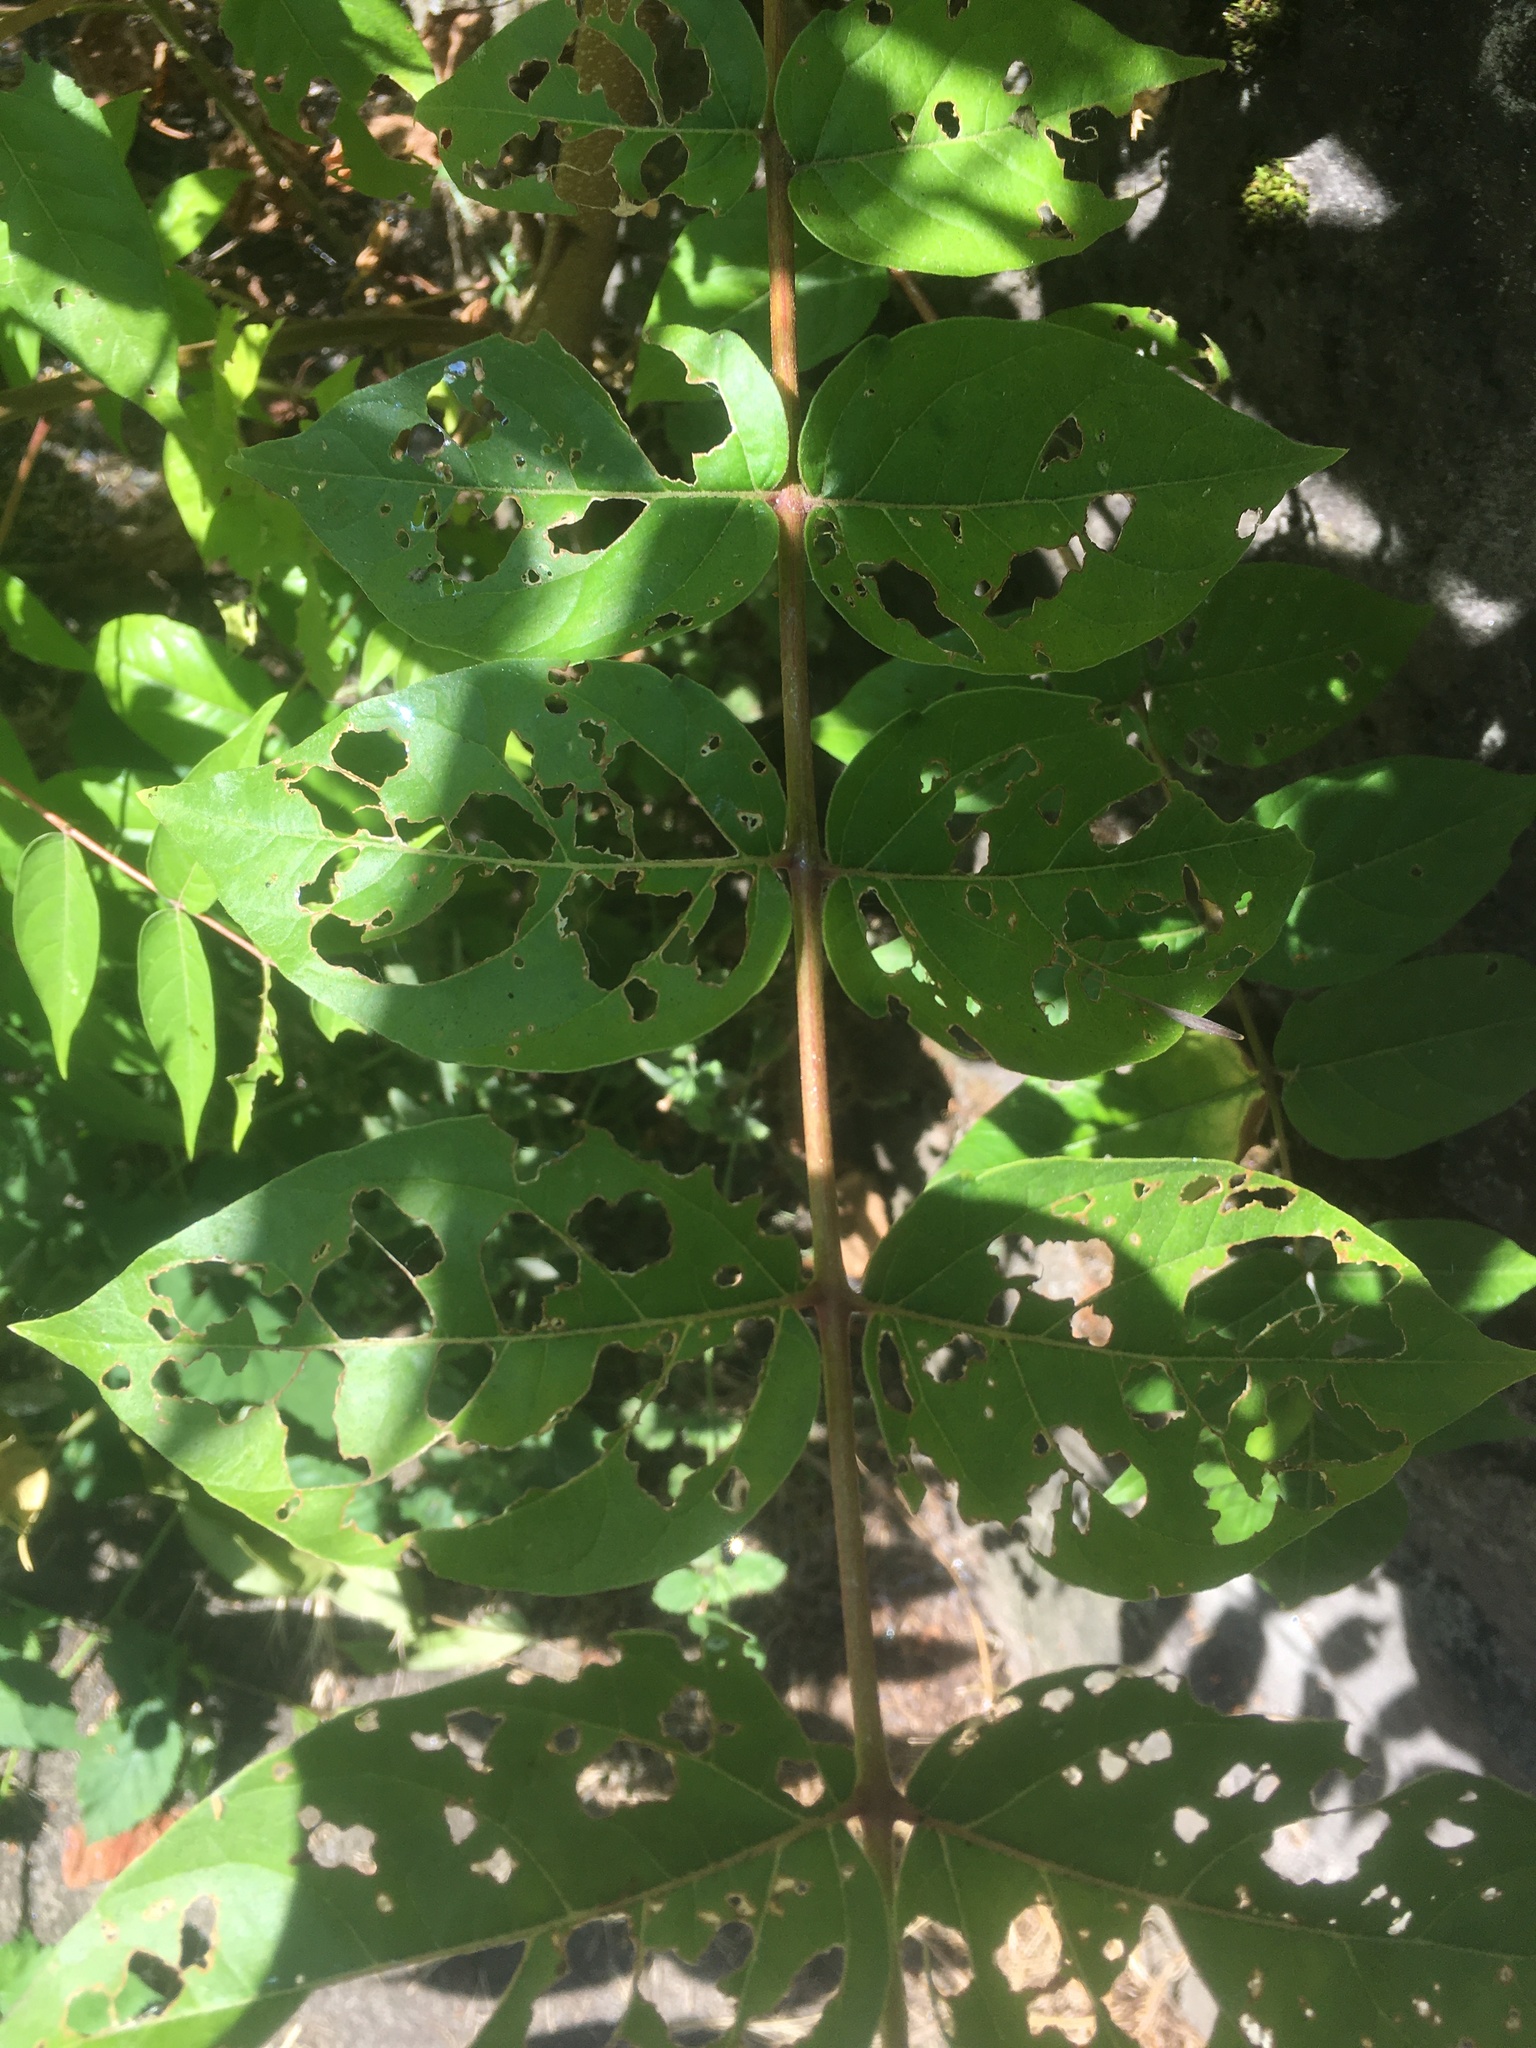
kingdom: Plantae
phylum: Tracheophyta
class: Magnoliopsida
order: Sapindales
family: Simaroubaceae
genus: Ailanthus
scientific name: Ailanthus altissima
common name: Tree-of-heaven
